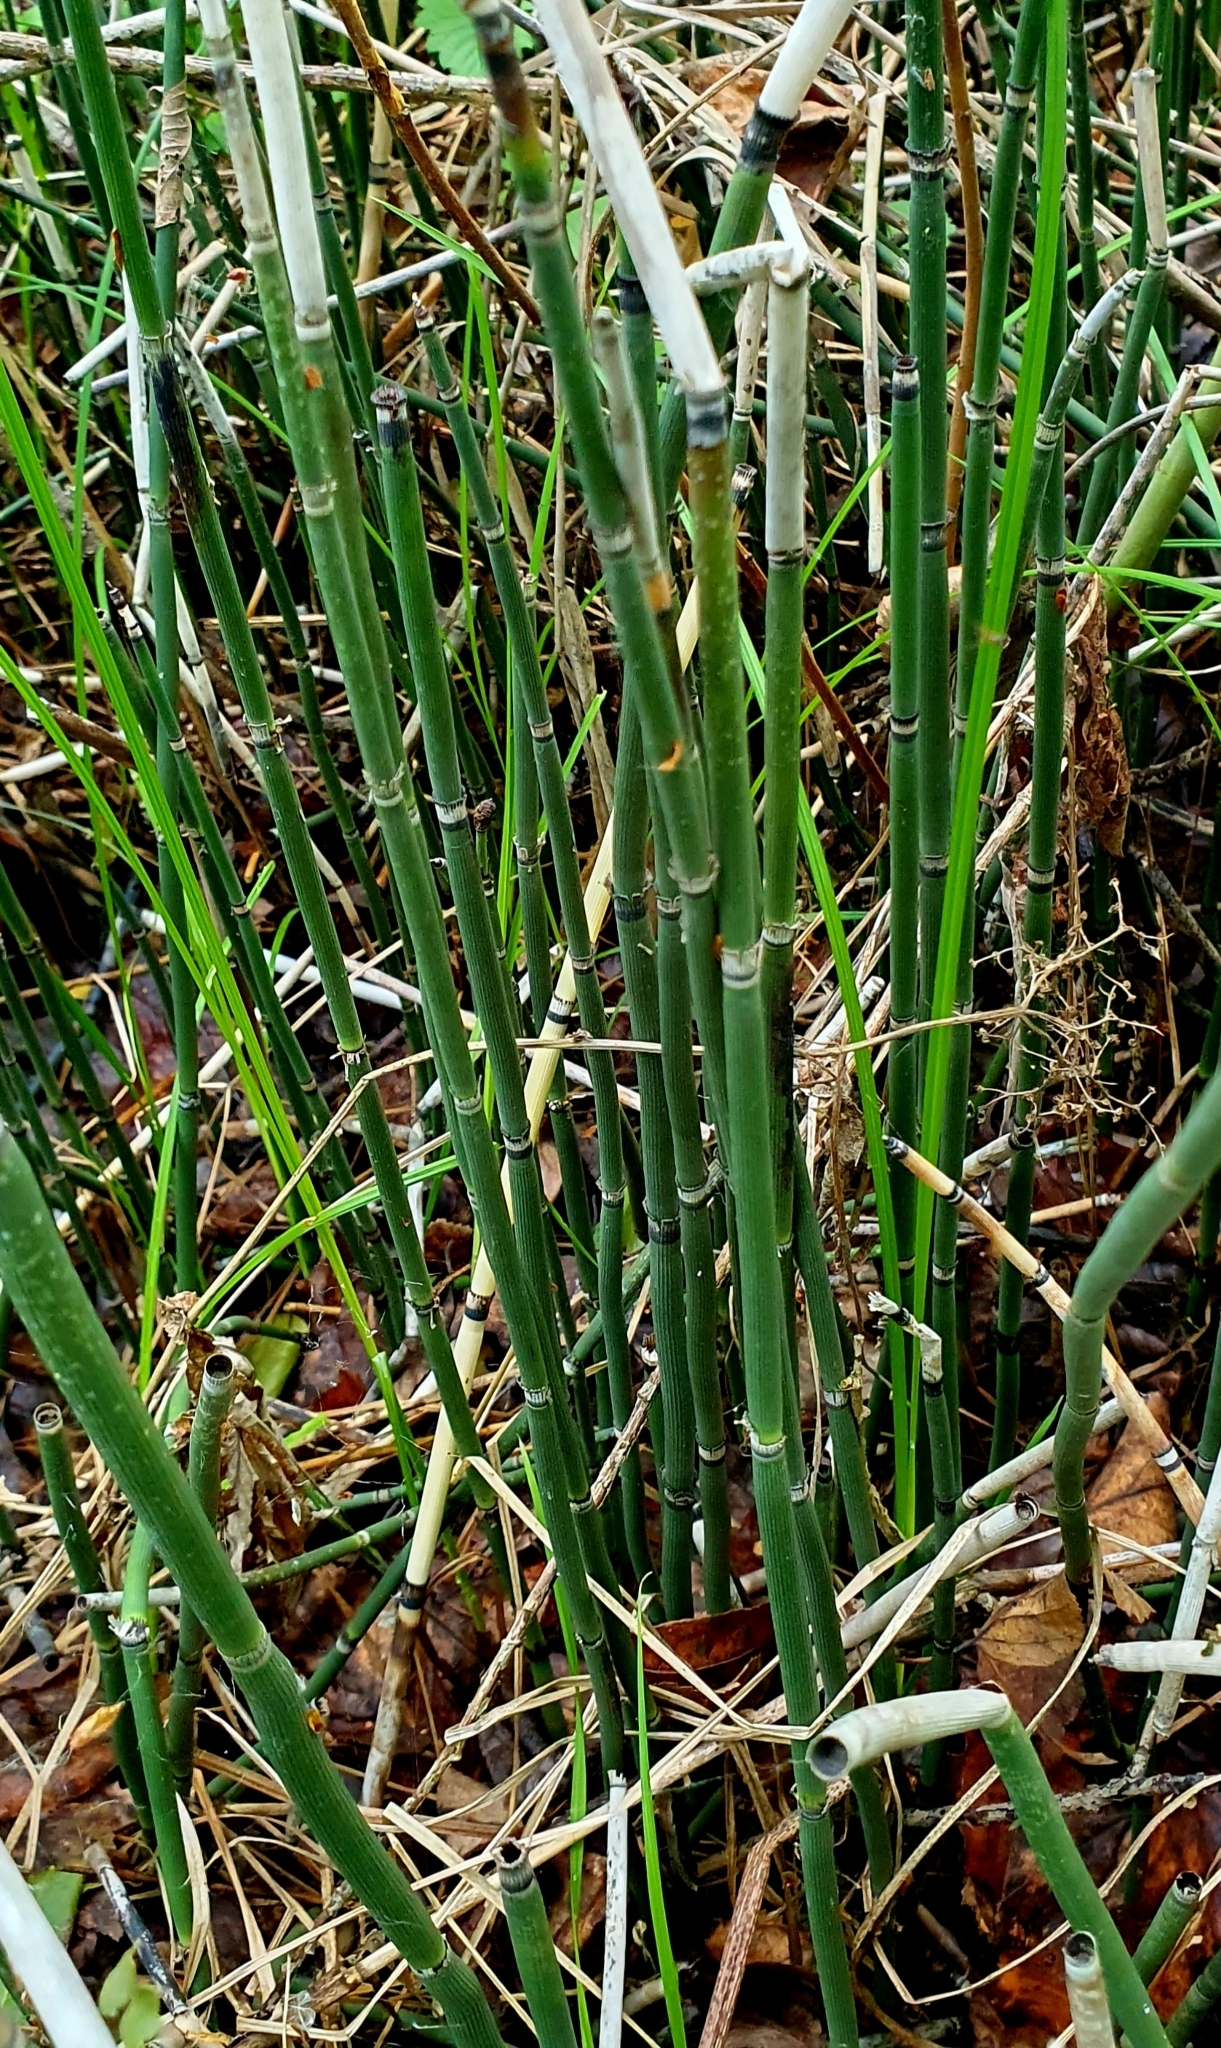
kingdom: Plantae
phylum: Tracheophyta
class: Polypodiopsida
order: Equisetales
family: Equisetaceae
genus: Equisetum
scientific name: Equisetum hyemale
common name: Rough horsetail
